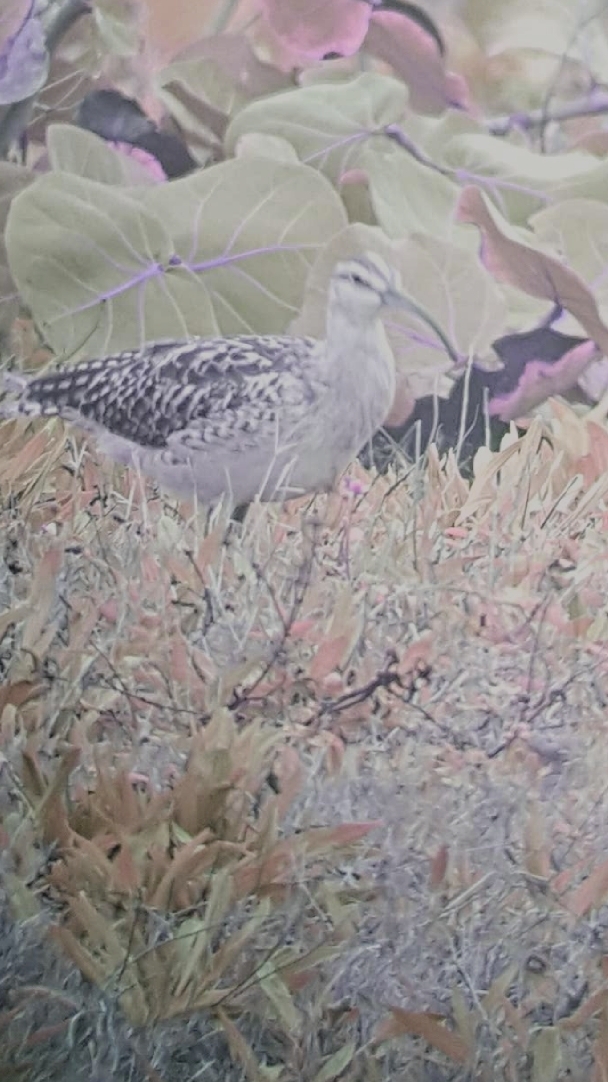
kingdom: Animalia
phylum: Chordata
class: Aves
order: Charadriiformes
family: Scolopacidae
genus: Numenius
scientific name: Numenius tahitiensis
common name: Bristle-thighed curlew
